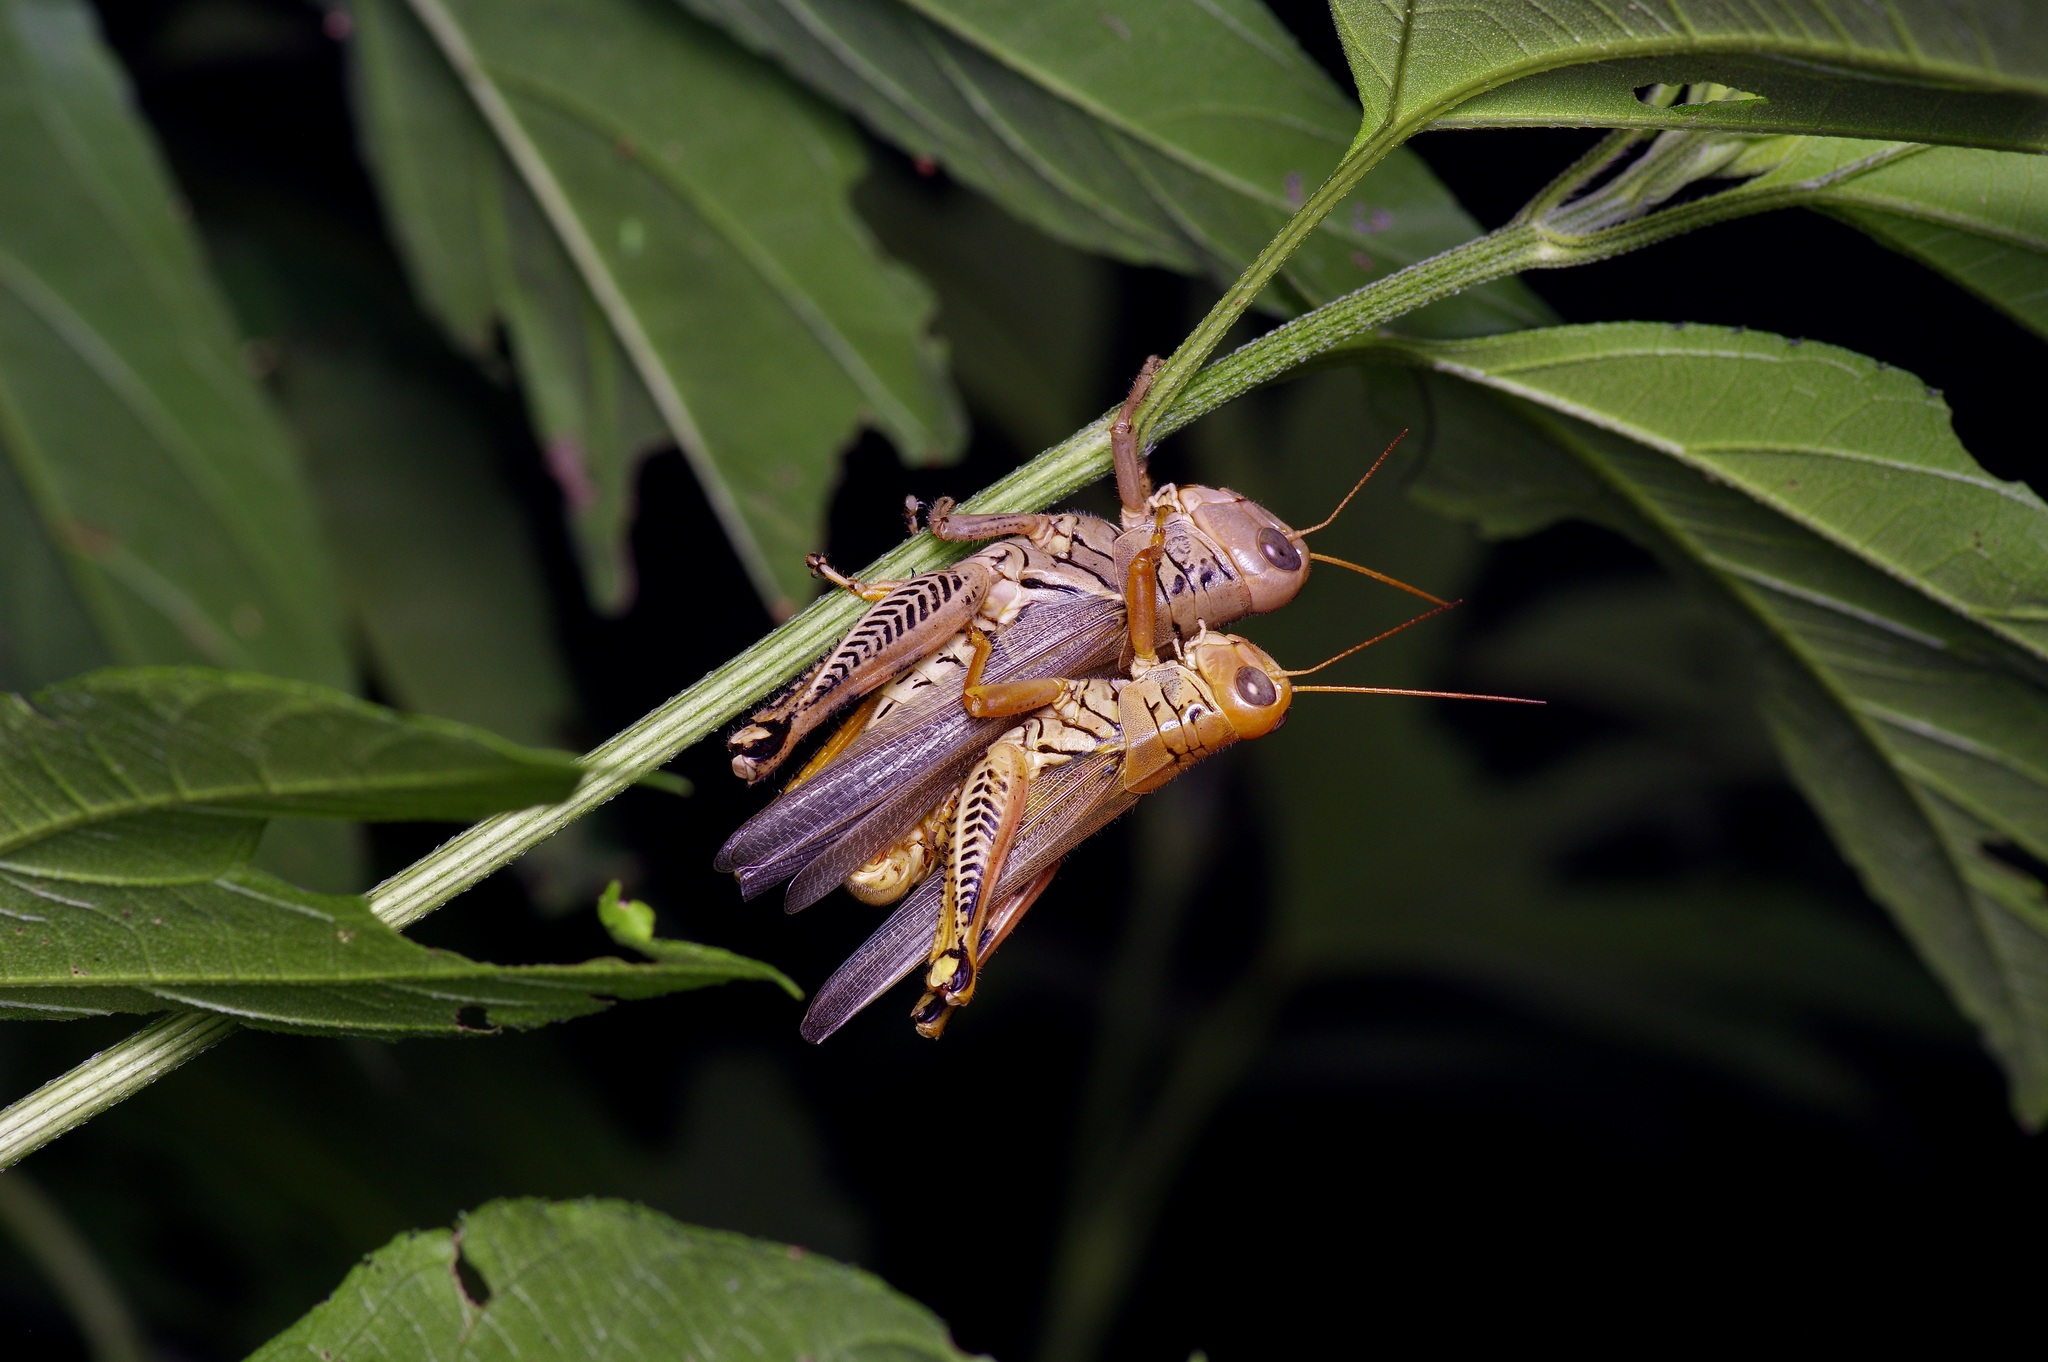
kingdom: Animalia
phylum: Arthropoda
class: Insecta
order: Orthoptera
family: Acrididae
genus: Melanoplus
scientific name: Melanoplus differentialis
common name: Differential grasshopper
